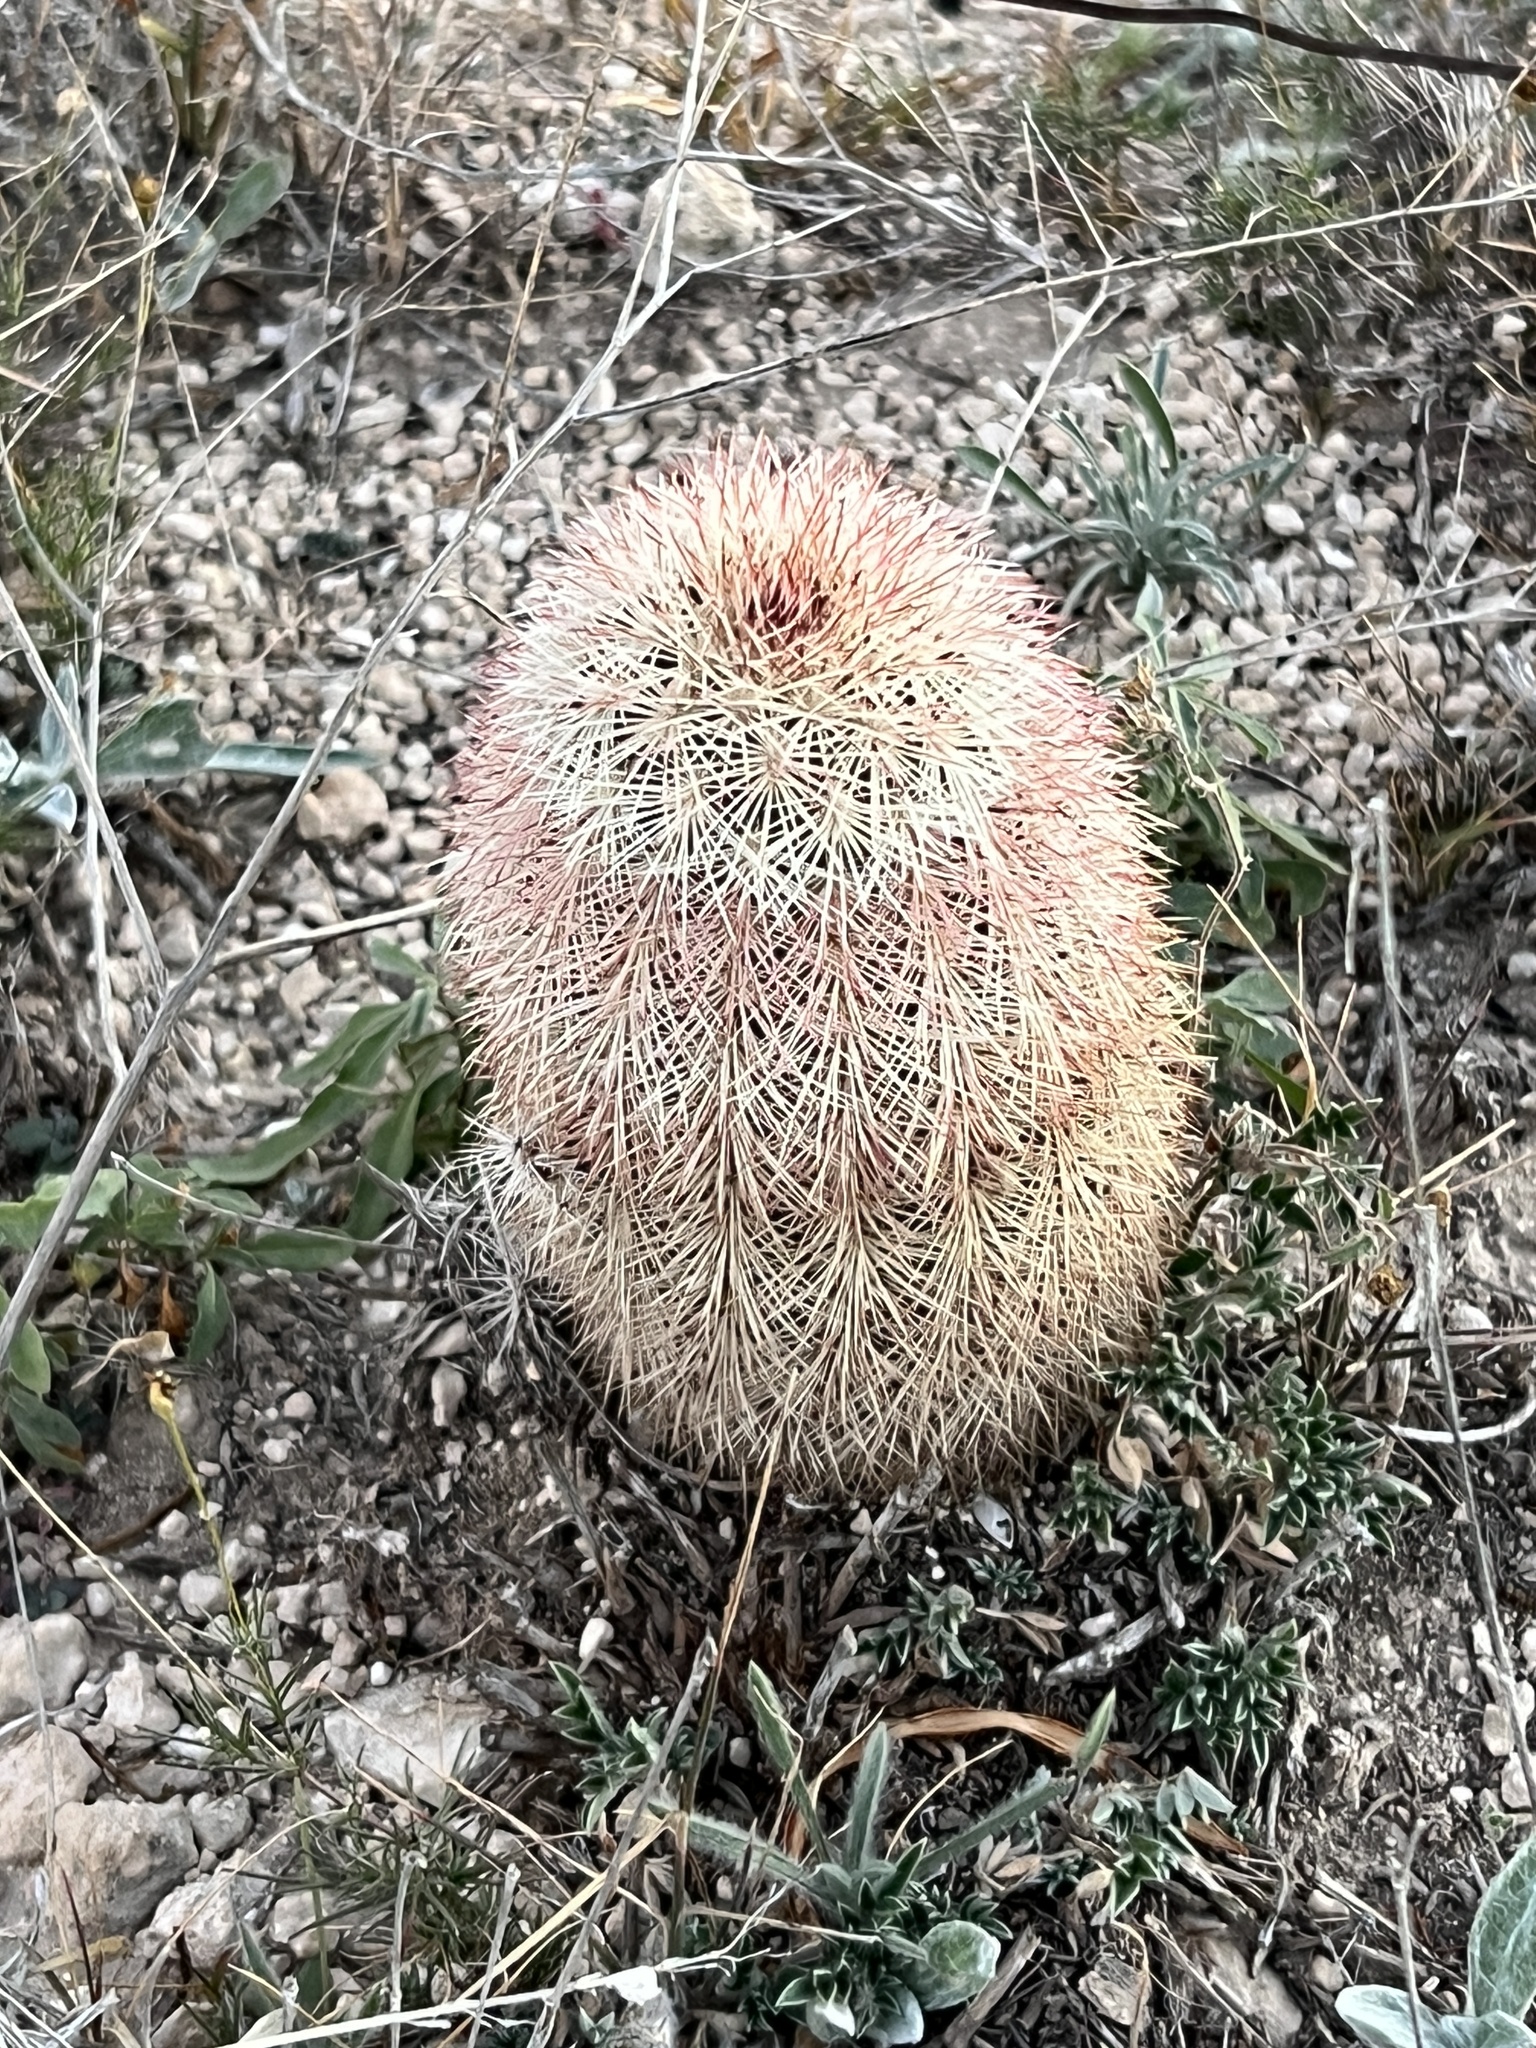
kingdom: Plantae
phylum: Tracheophyta
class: Magnoliopsida
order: Caryophyllales
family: Cactaceae
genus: Echinocereus
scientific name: Echinocereus dasyacanthus
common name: Spiny hedgehog cactus
